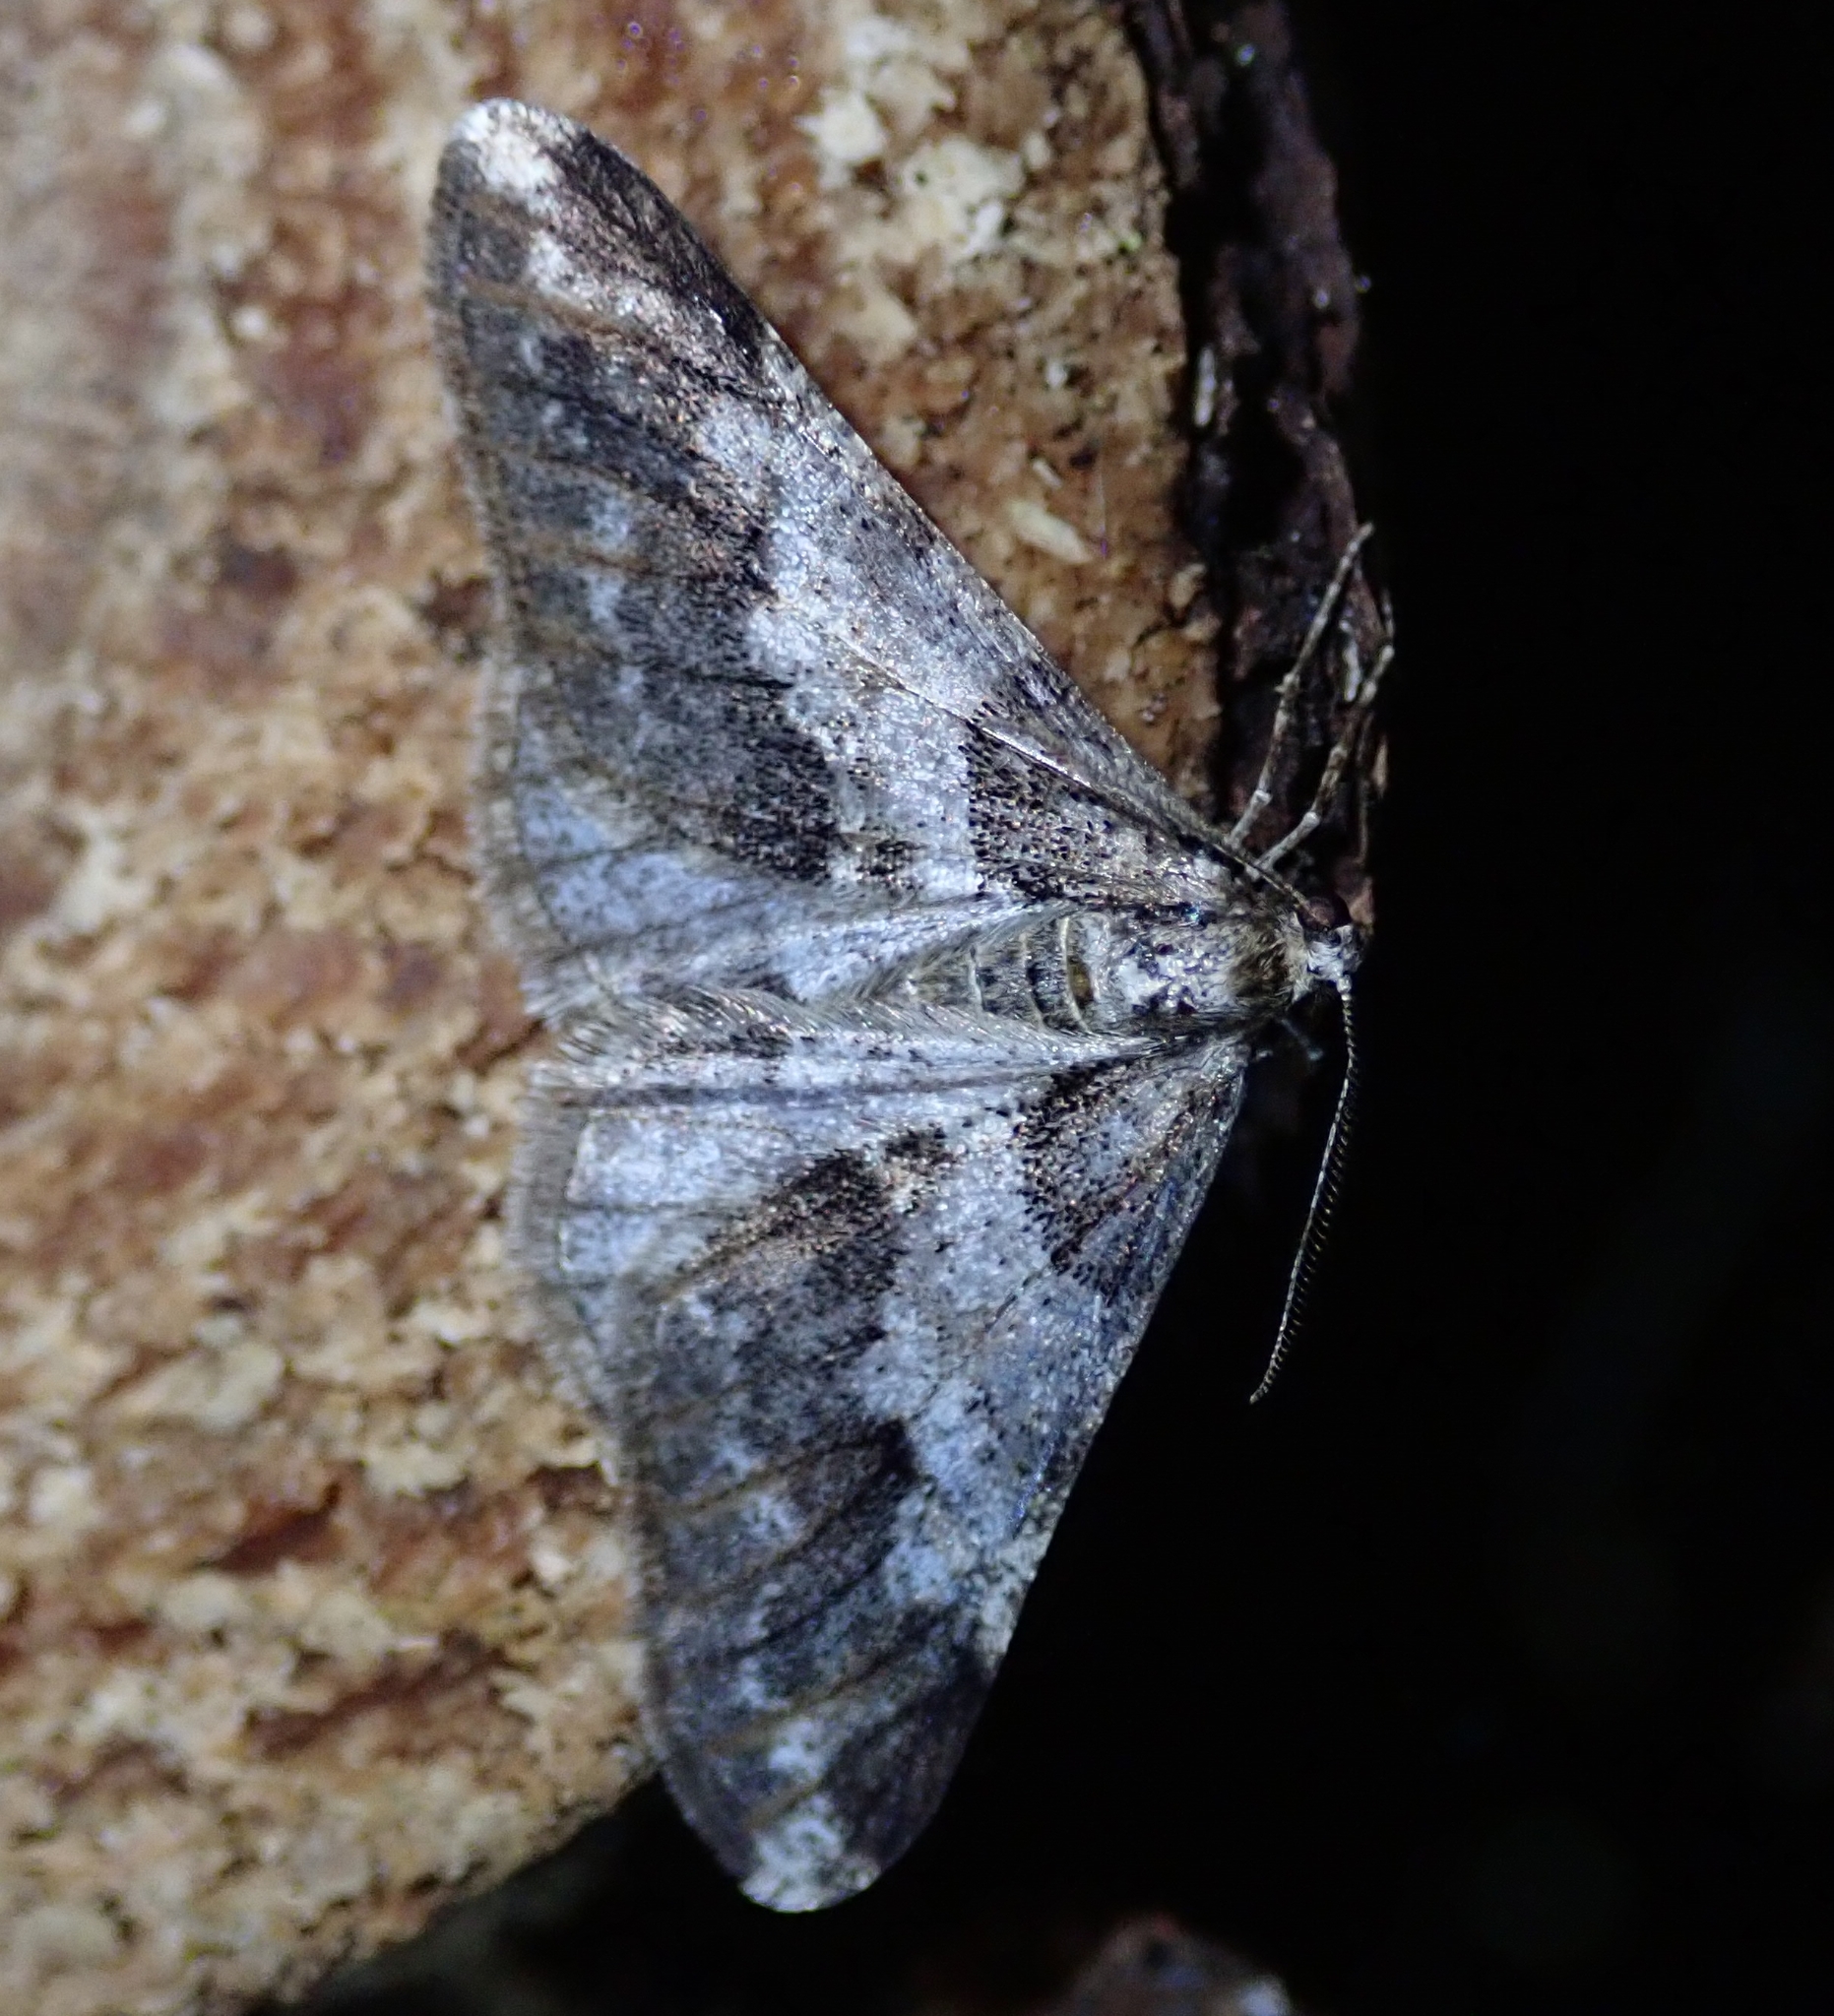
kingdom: Animalia
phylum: Arthropoda
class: Insecta
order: Lepidoptera
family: Geometridae
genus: Agriopis
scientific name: Agriopis leucophaearia
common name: Spring usher
